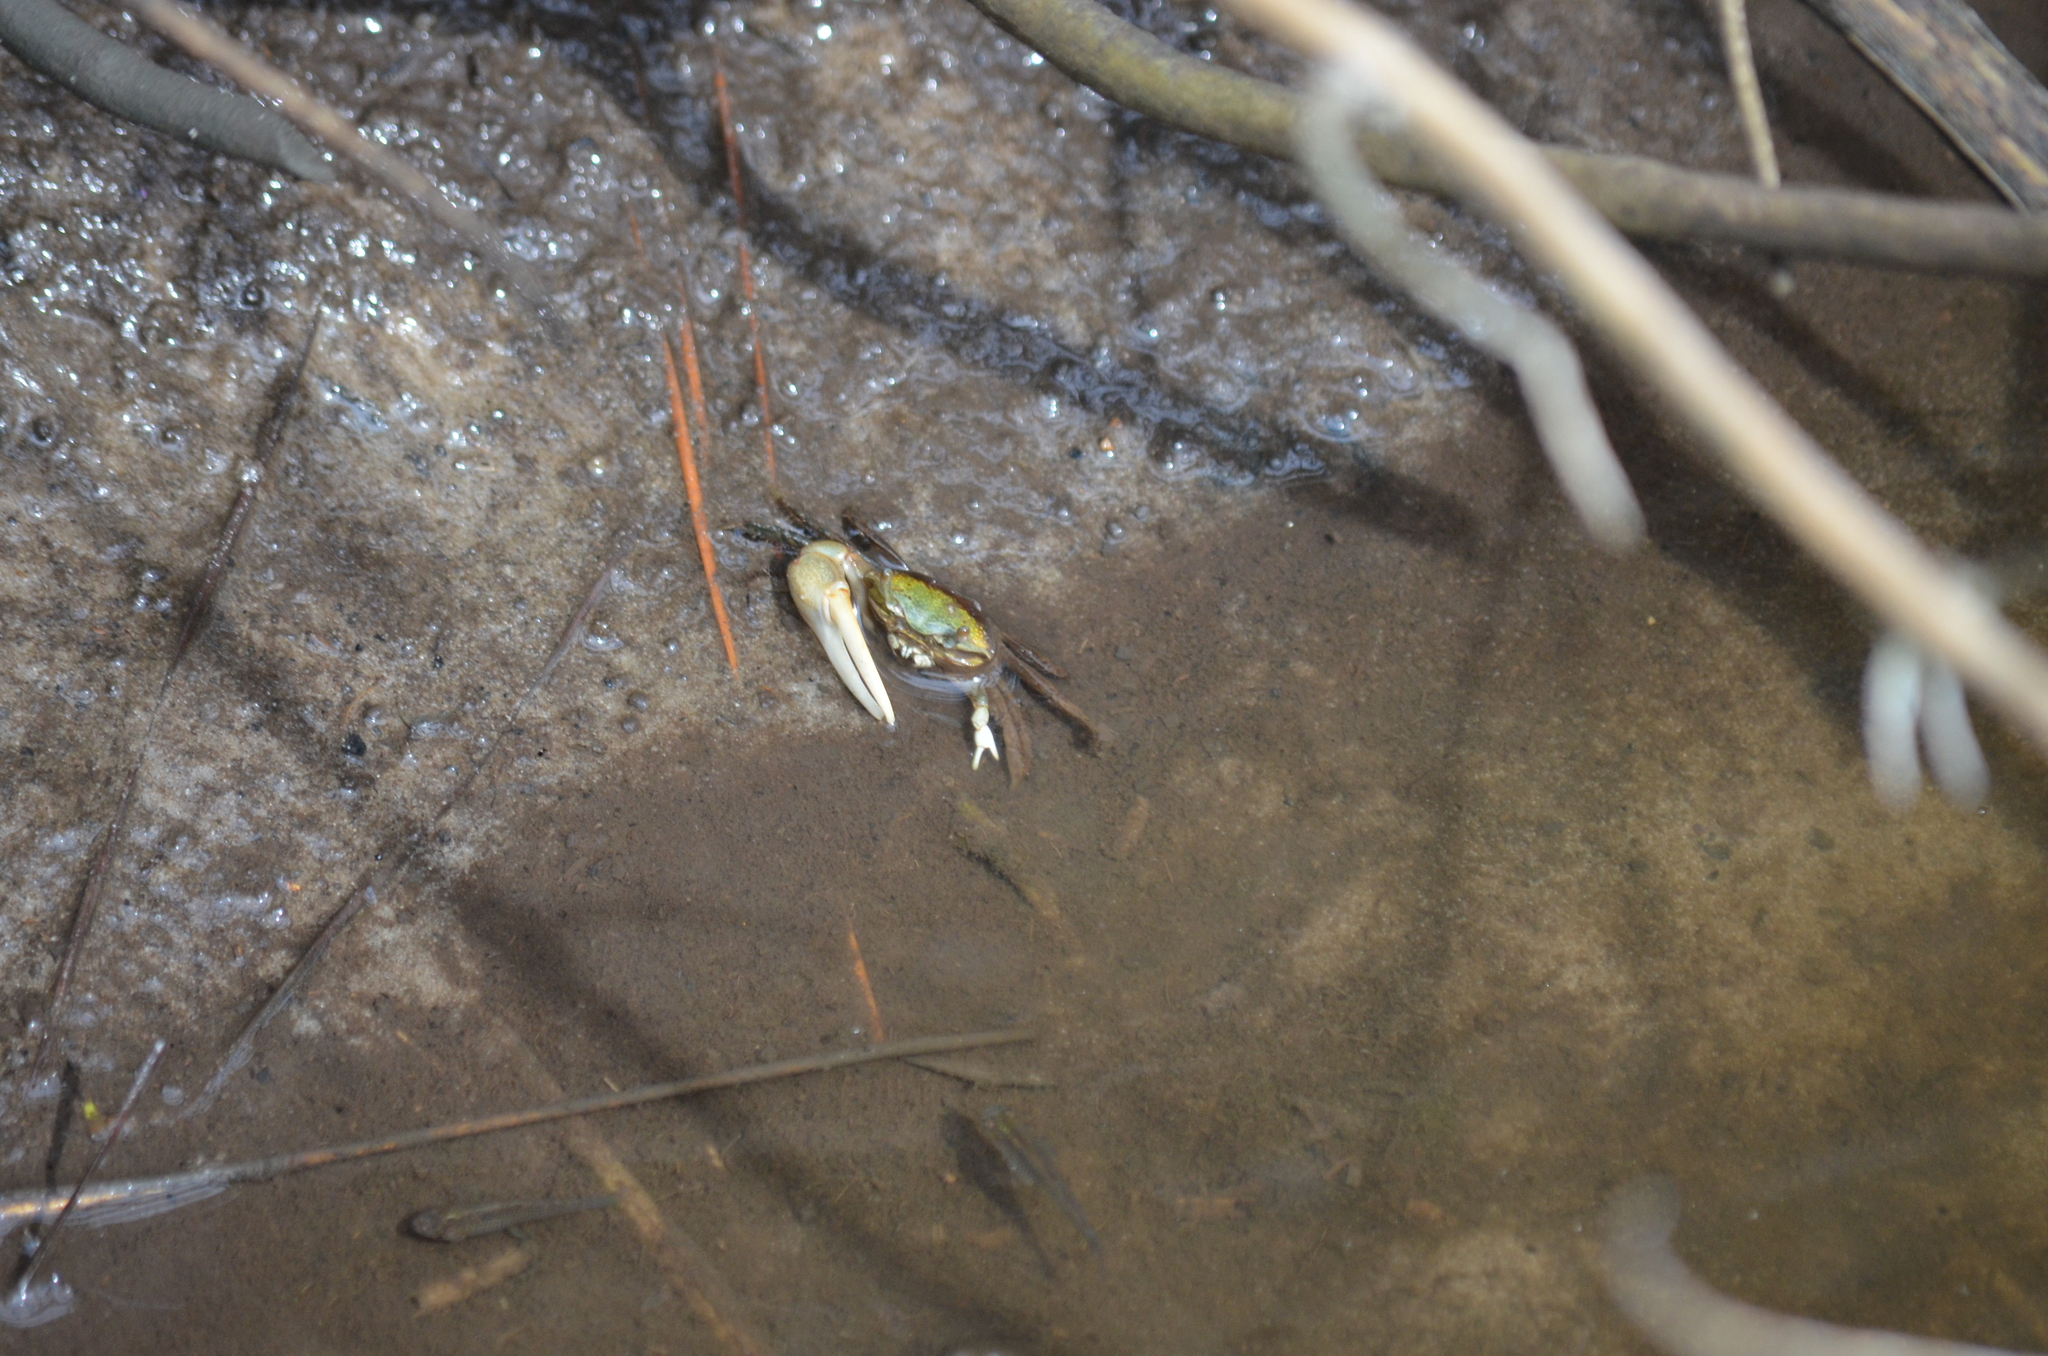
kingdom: Animalia
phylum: Arthropoda
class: Malacostraca
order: Decapoda
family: Ocypodidae
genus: Minuca
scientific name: Minuca longisignalis
